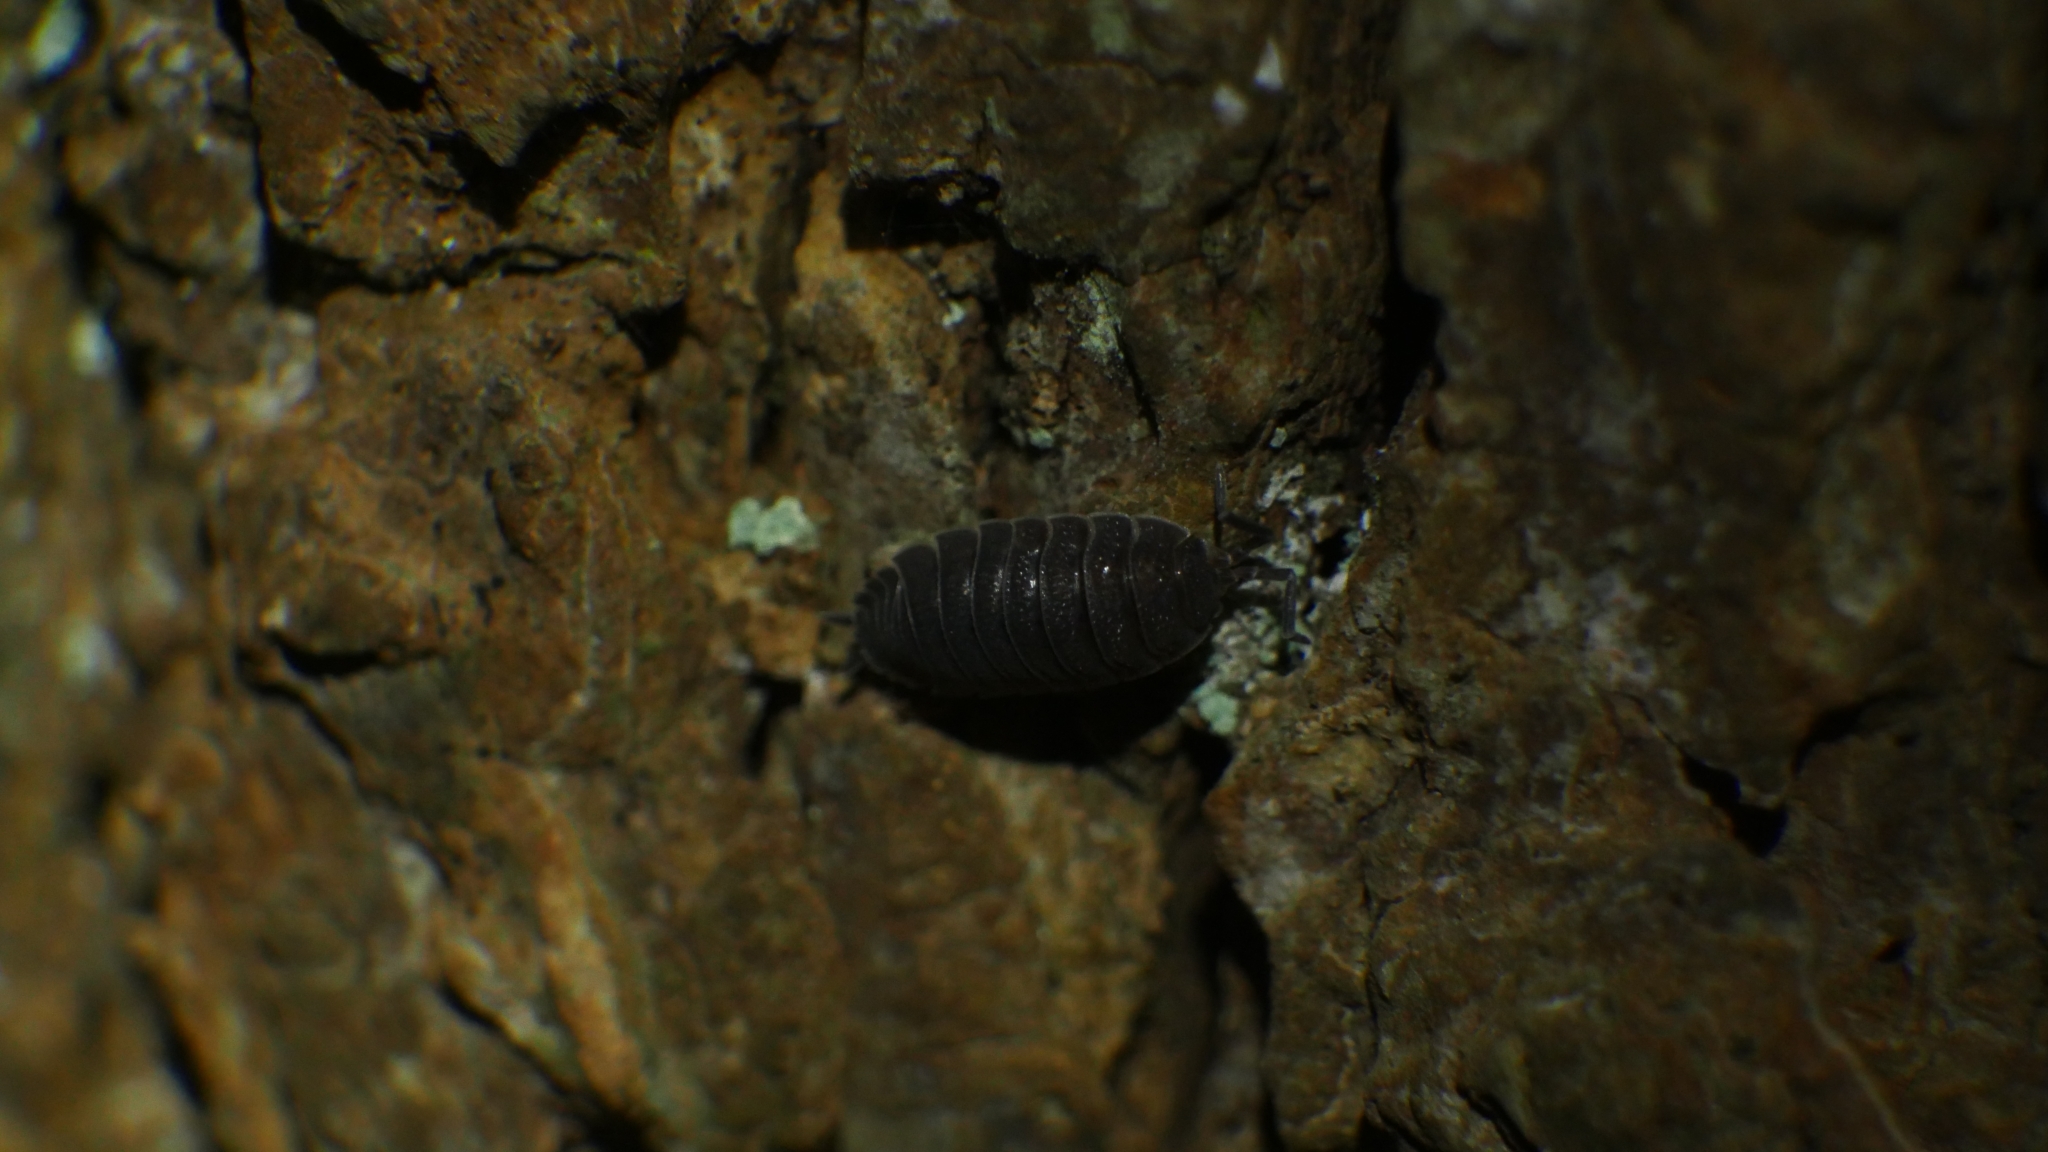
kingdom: Animalia
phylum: Arthropoda
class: Malacostraca
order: Isopoda
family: Porcellionidae
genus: Porcellio
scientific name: Porcellio scaber
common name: Common rough woodlouse
